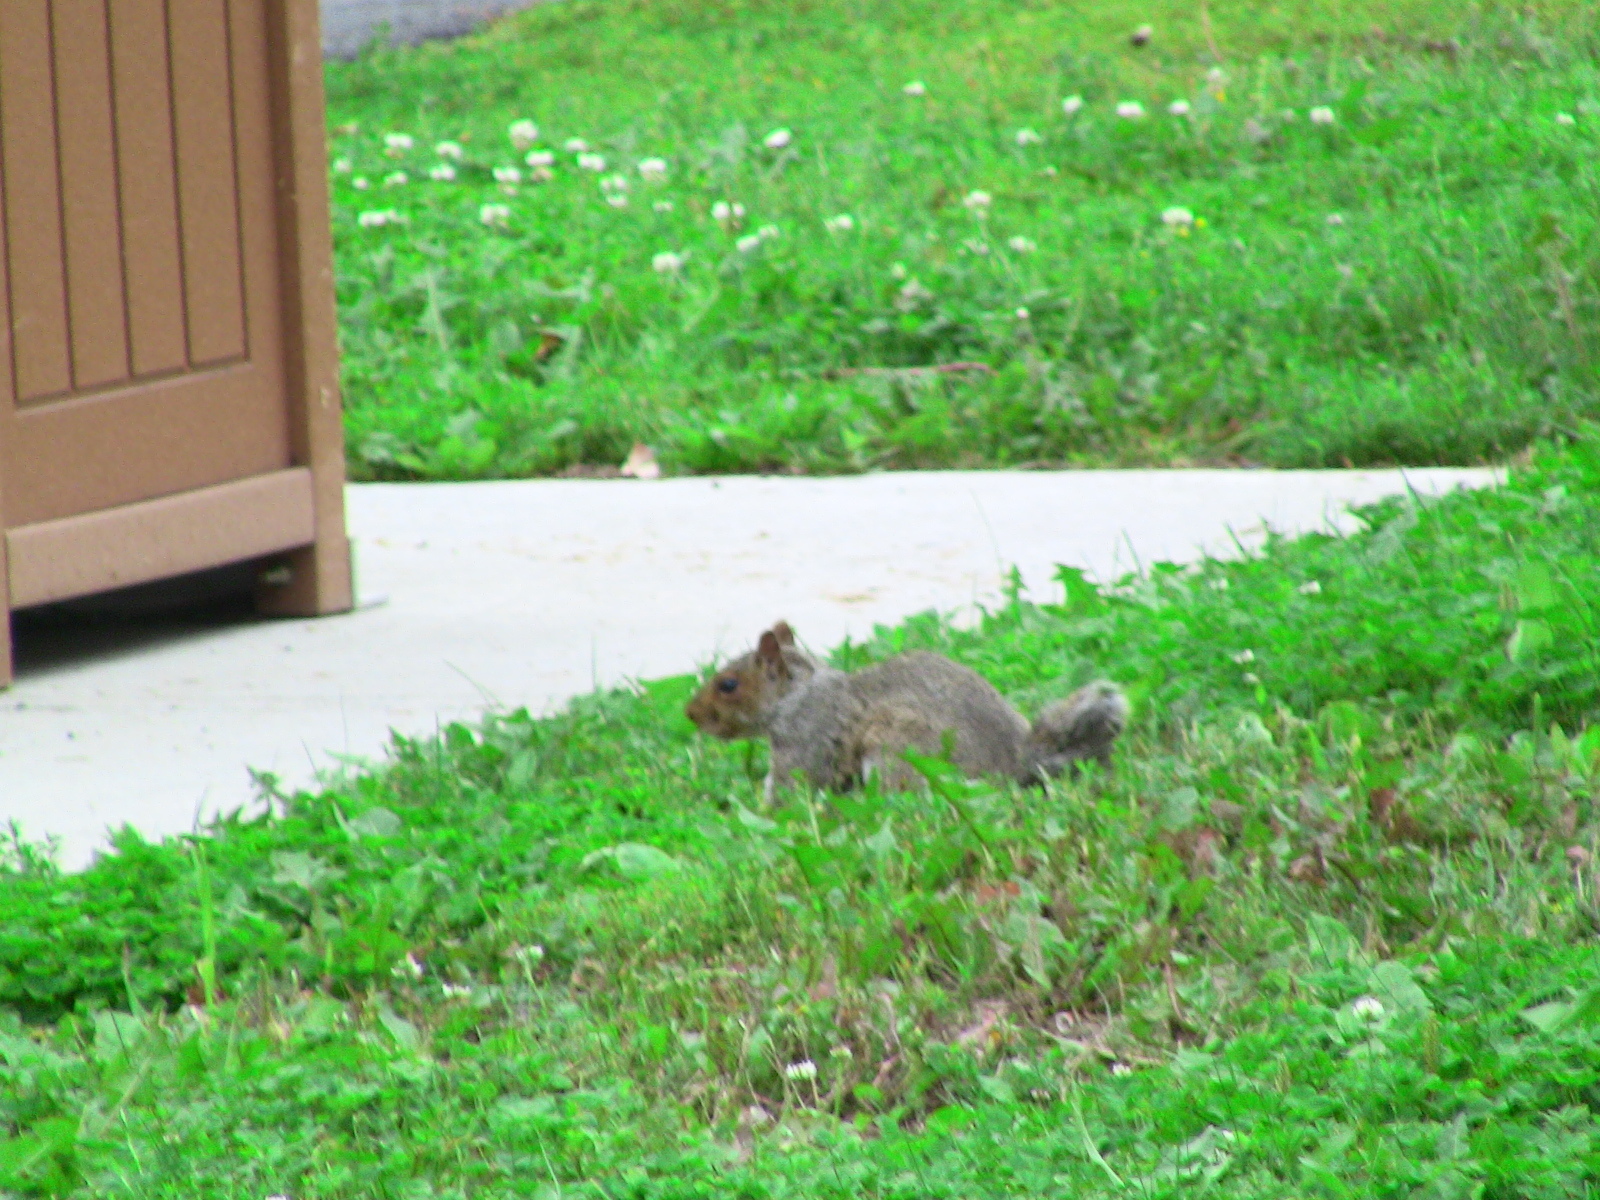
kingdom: Animalia
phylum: Chordata
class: Mammalia
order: Rodentia
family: Sciuridae
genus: Sciurus
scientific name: Sciurus carolinensis
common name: Eastern gray squirrel
